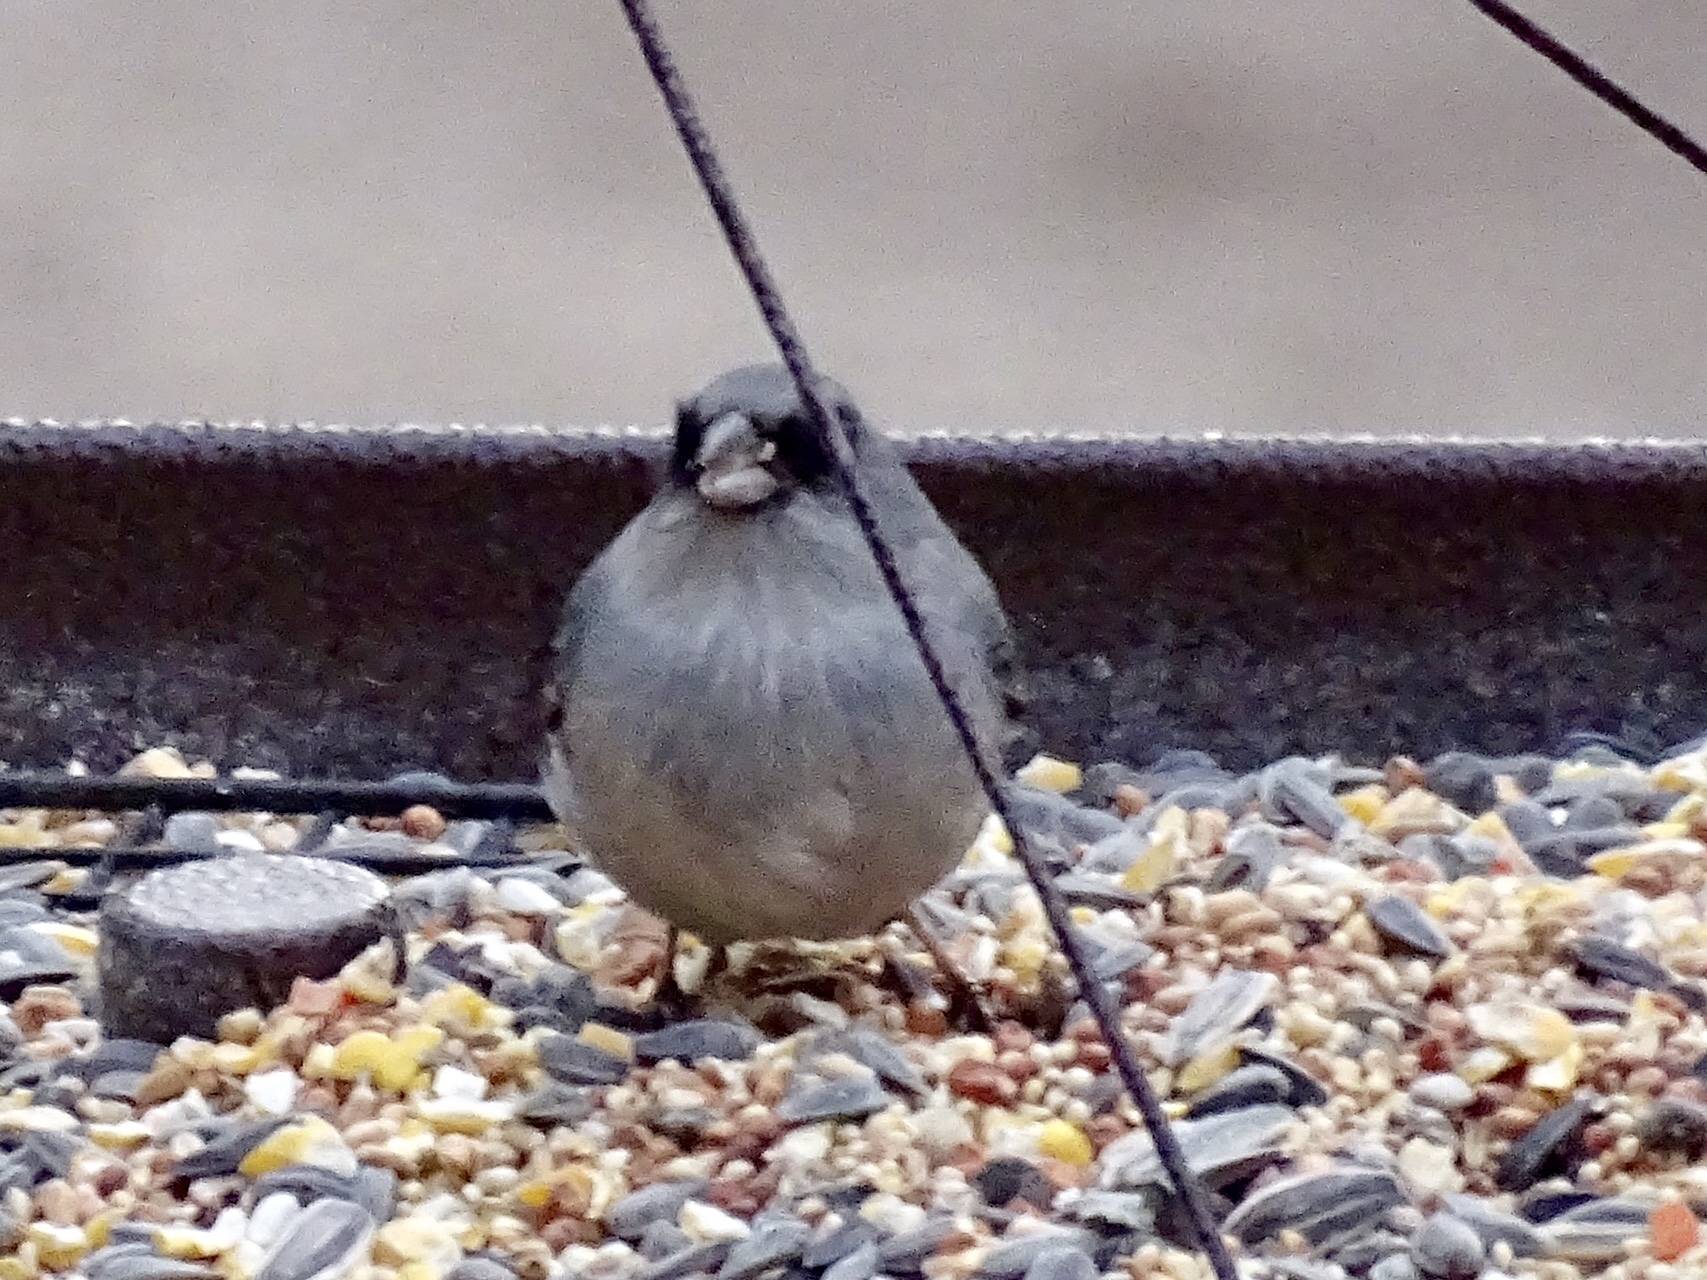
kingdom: Animalia
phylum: Chordata
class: Aves
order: Passeriformes
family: Passerellidae
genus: Junco
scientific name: Junco hyemalis
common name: Dark-eyed junco
